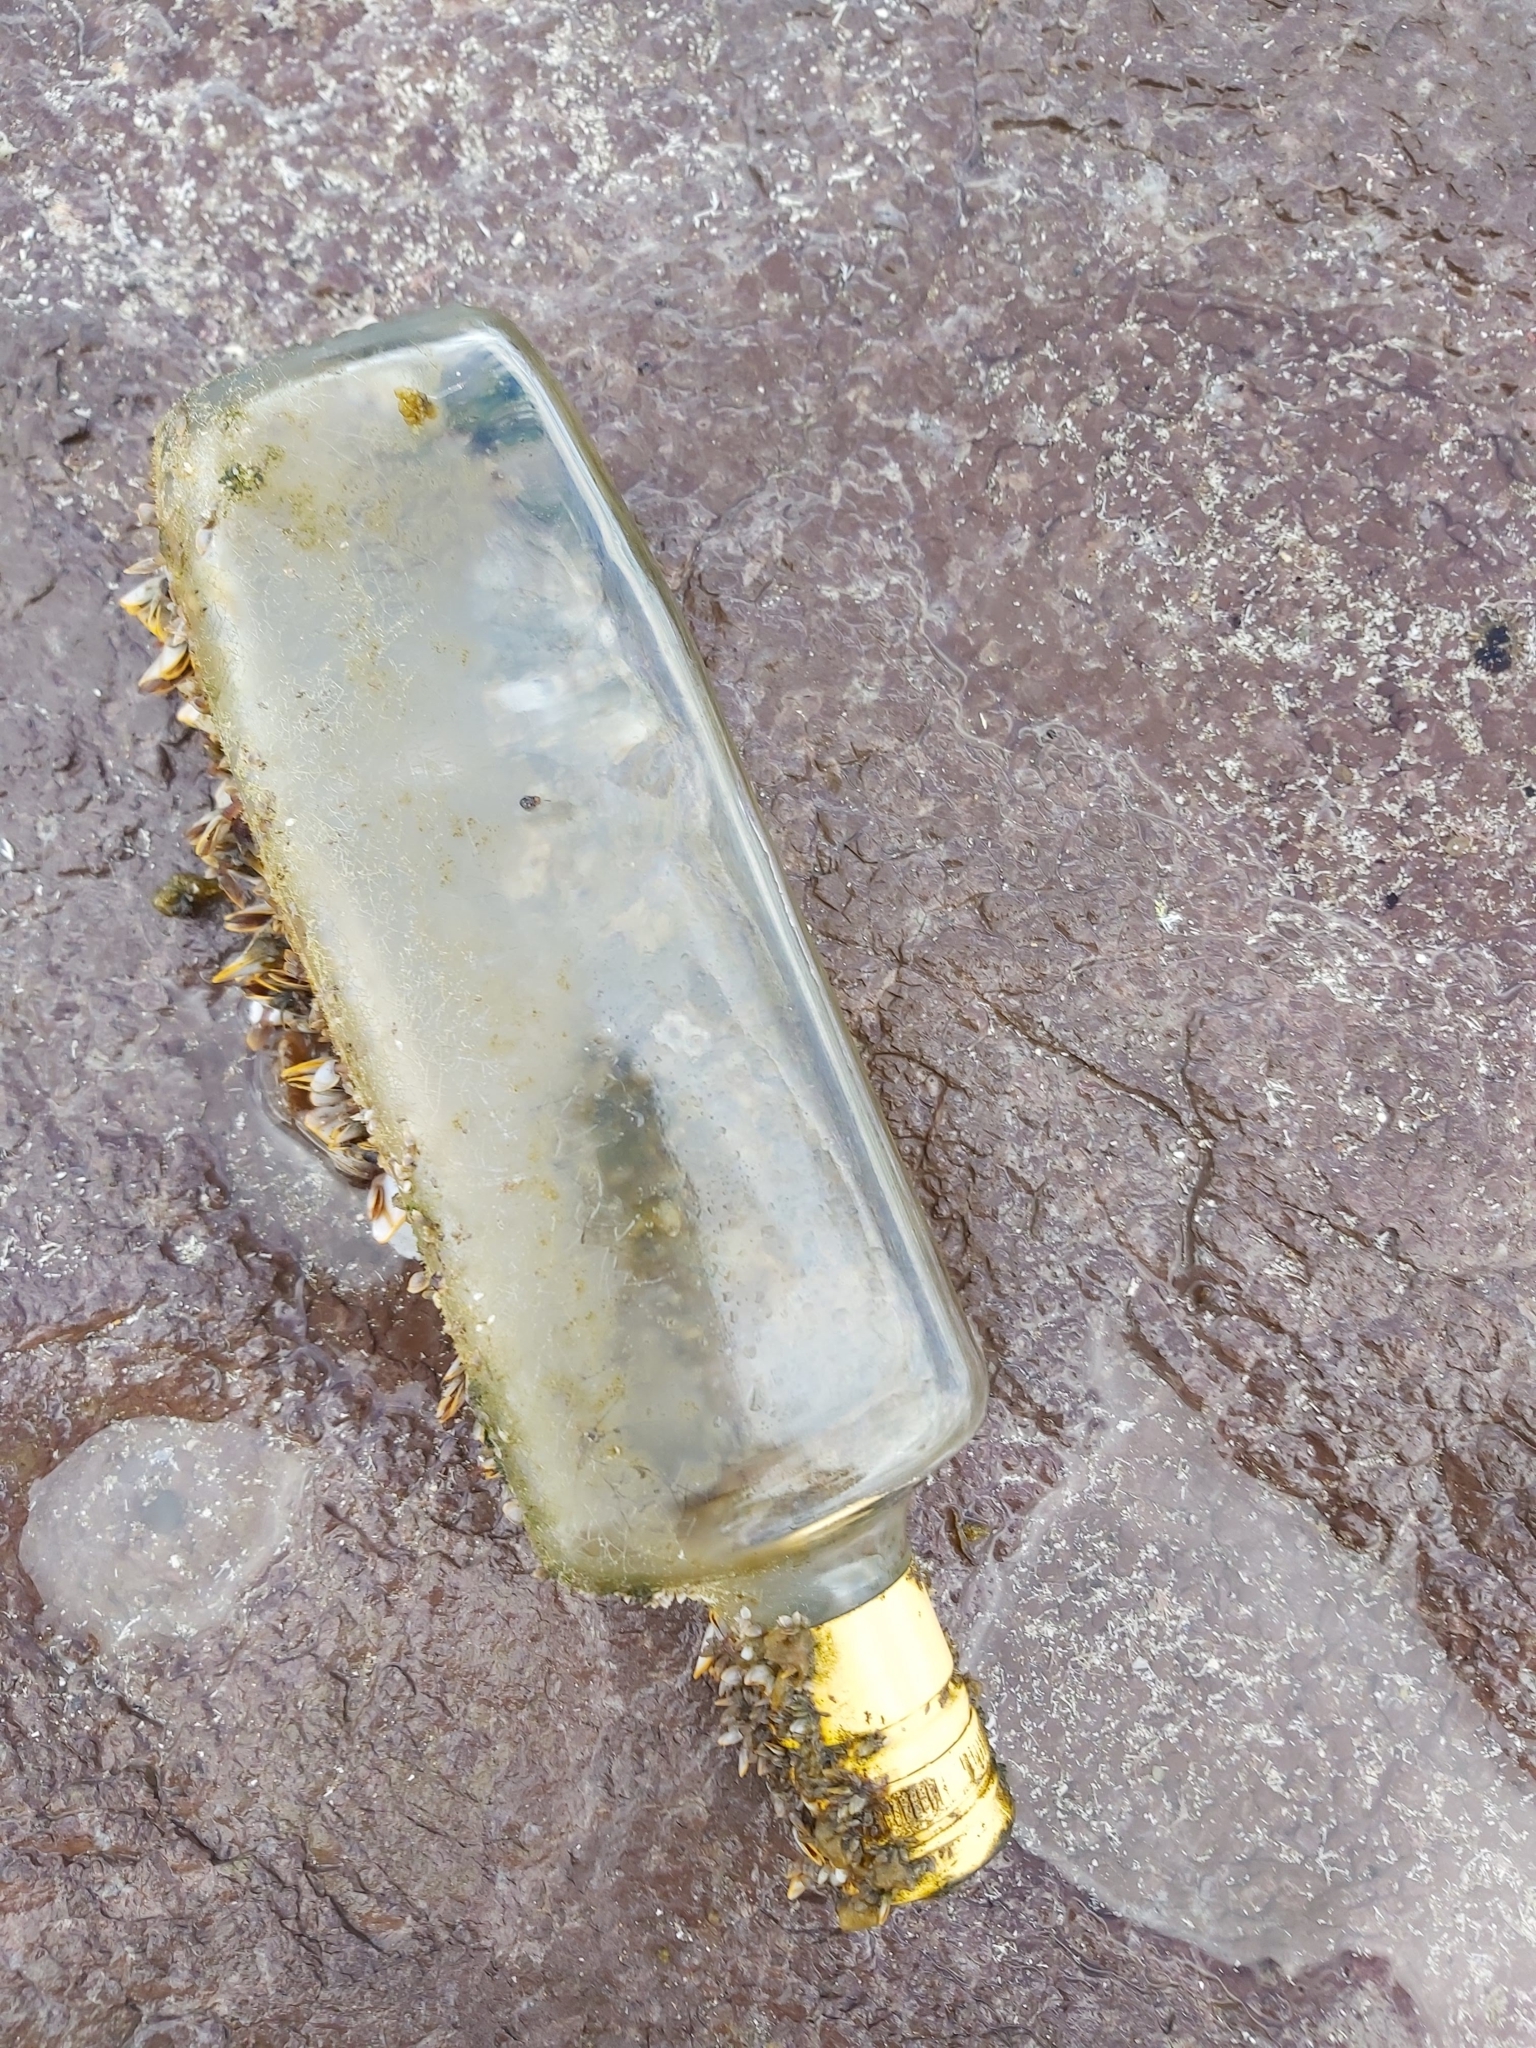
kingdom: Animalia
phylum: Arthropoda
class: Maxillopoda
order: Pedunculata
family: Lepadidae
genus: Lepas
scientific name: Lepas anserifera
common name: Goose barnacle
